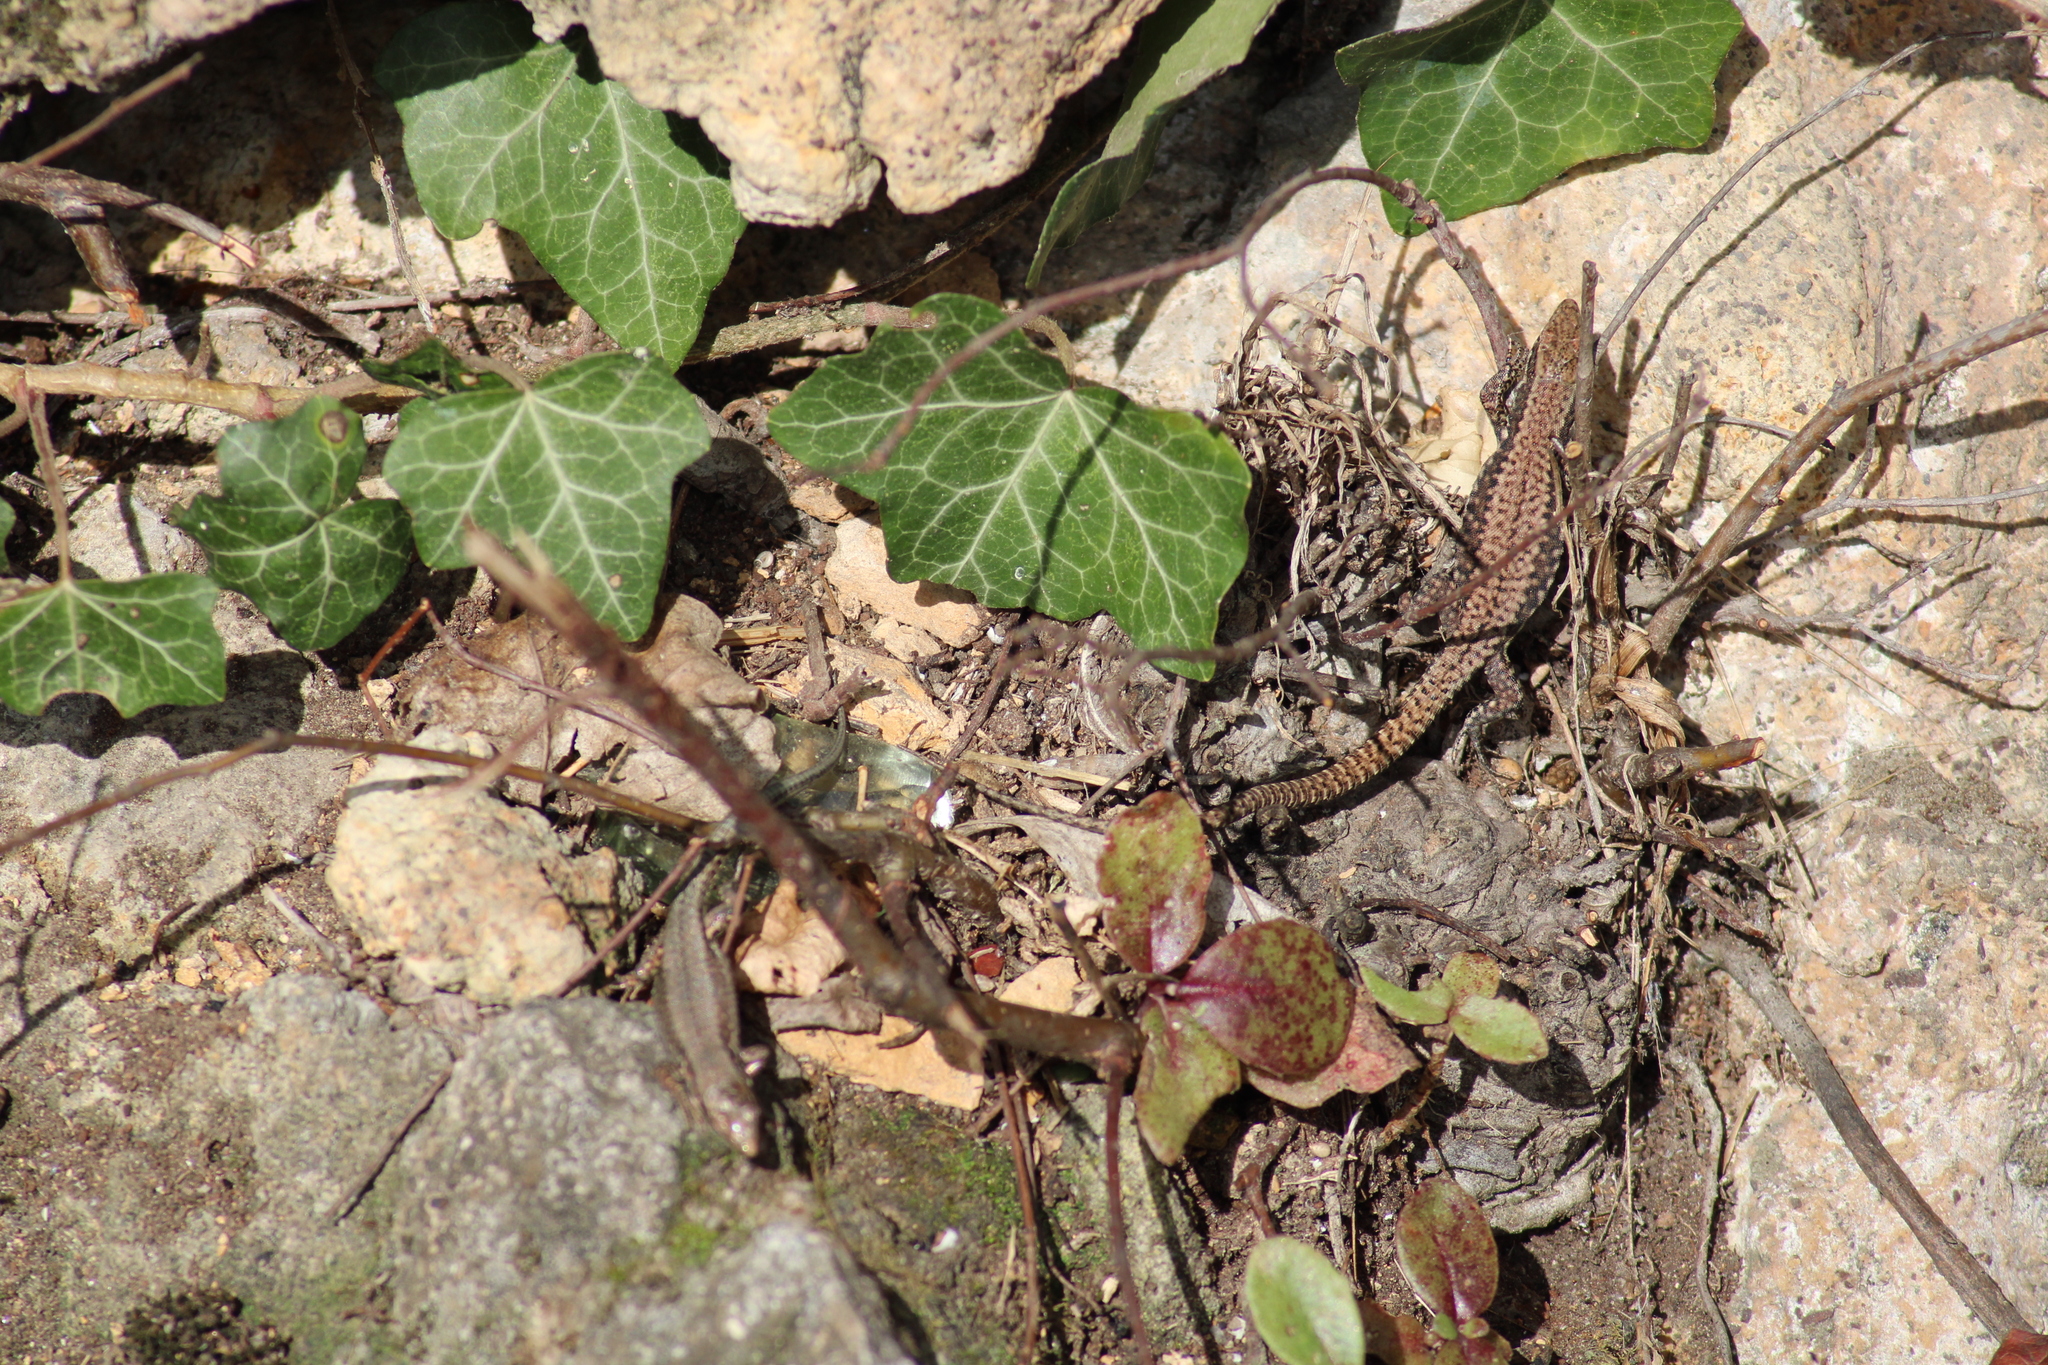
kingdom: Animalia
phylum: Chordata
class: Squamata
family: Lacertidae
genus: Podarcis
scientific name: Podarcis muralis
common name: Common wall lizard
